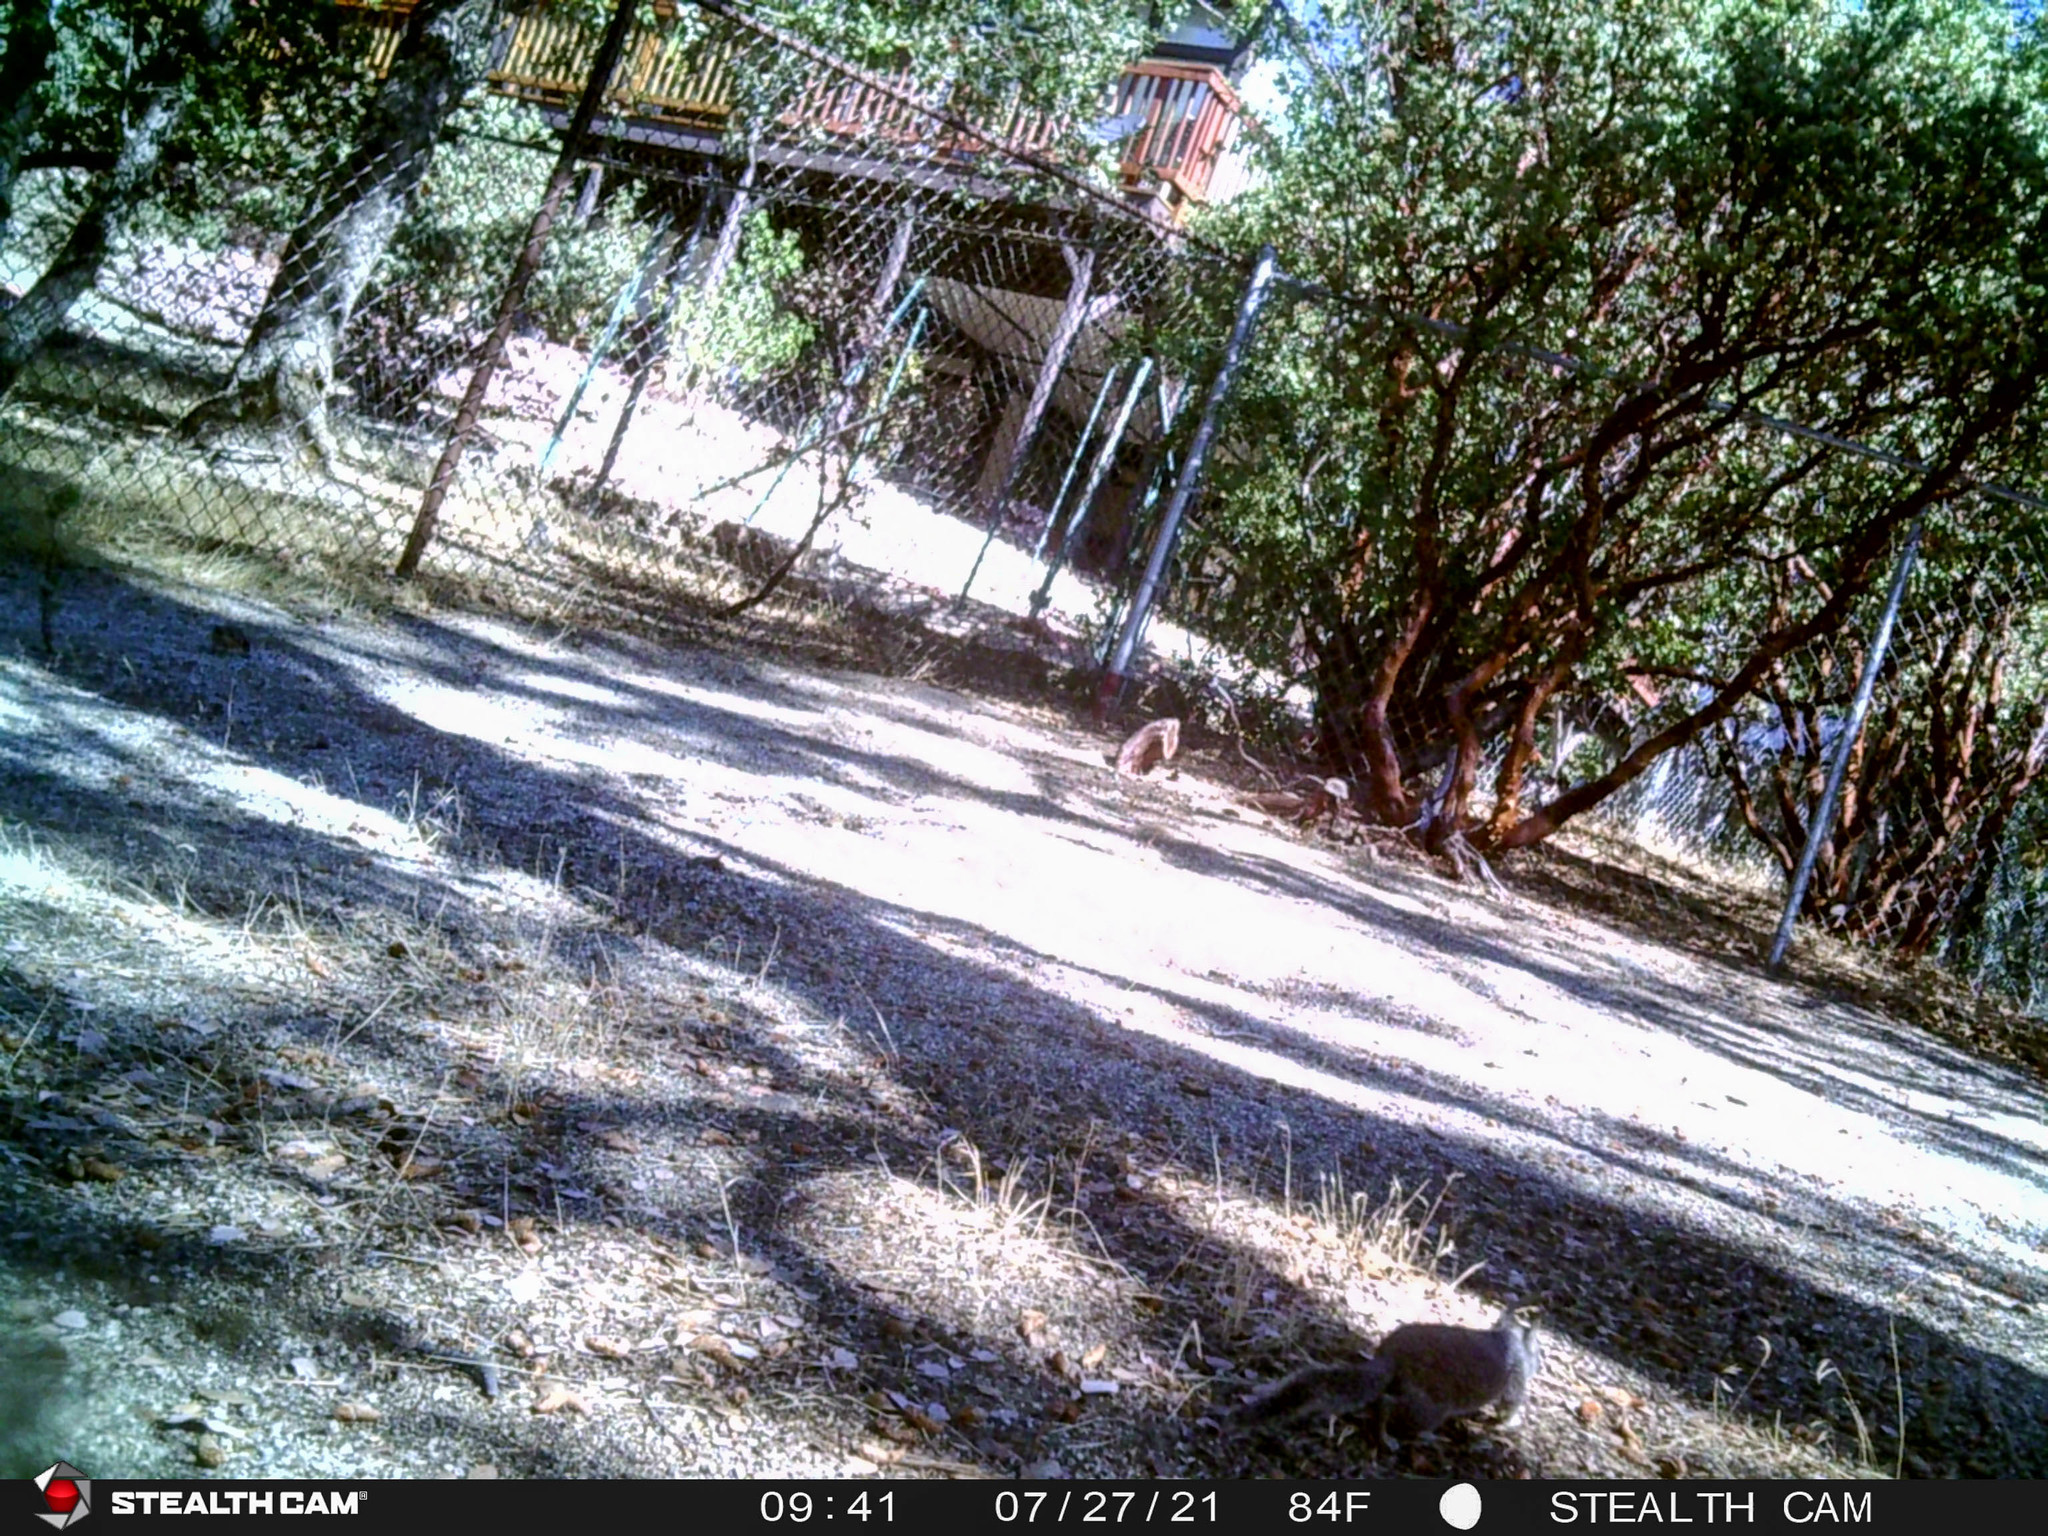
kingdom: Animalia
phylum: Chordata
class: Mammalia
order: Rodentia
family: Sciuridae
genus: Otospermophilus
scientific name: Otospermophilus beecheyi
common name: California ground squirrel
